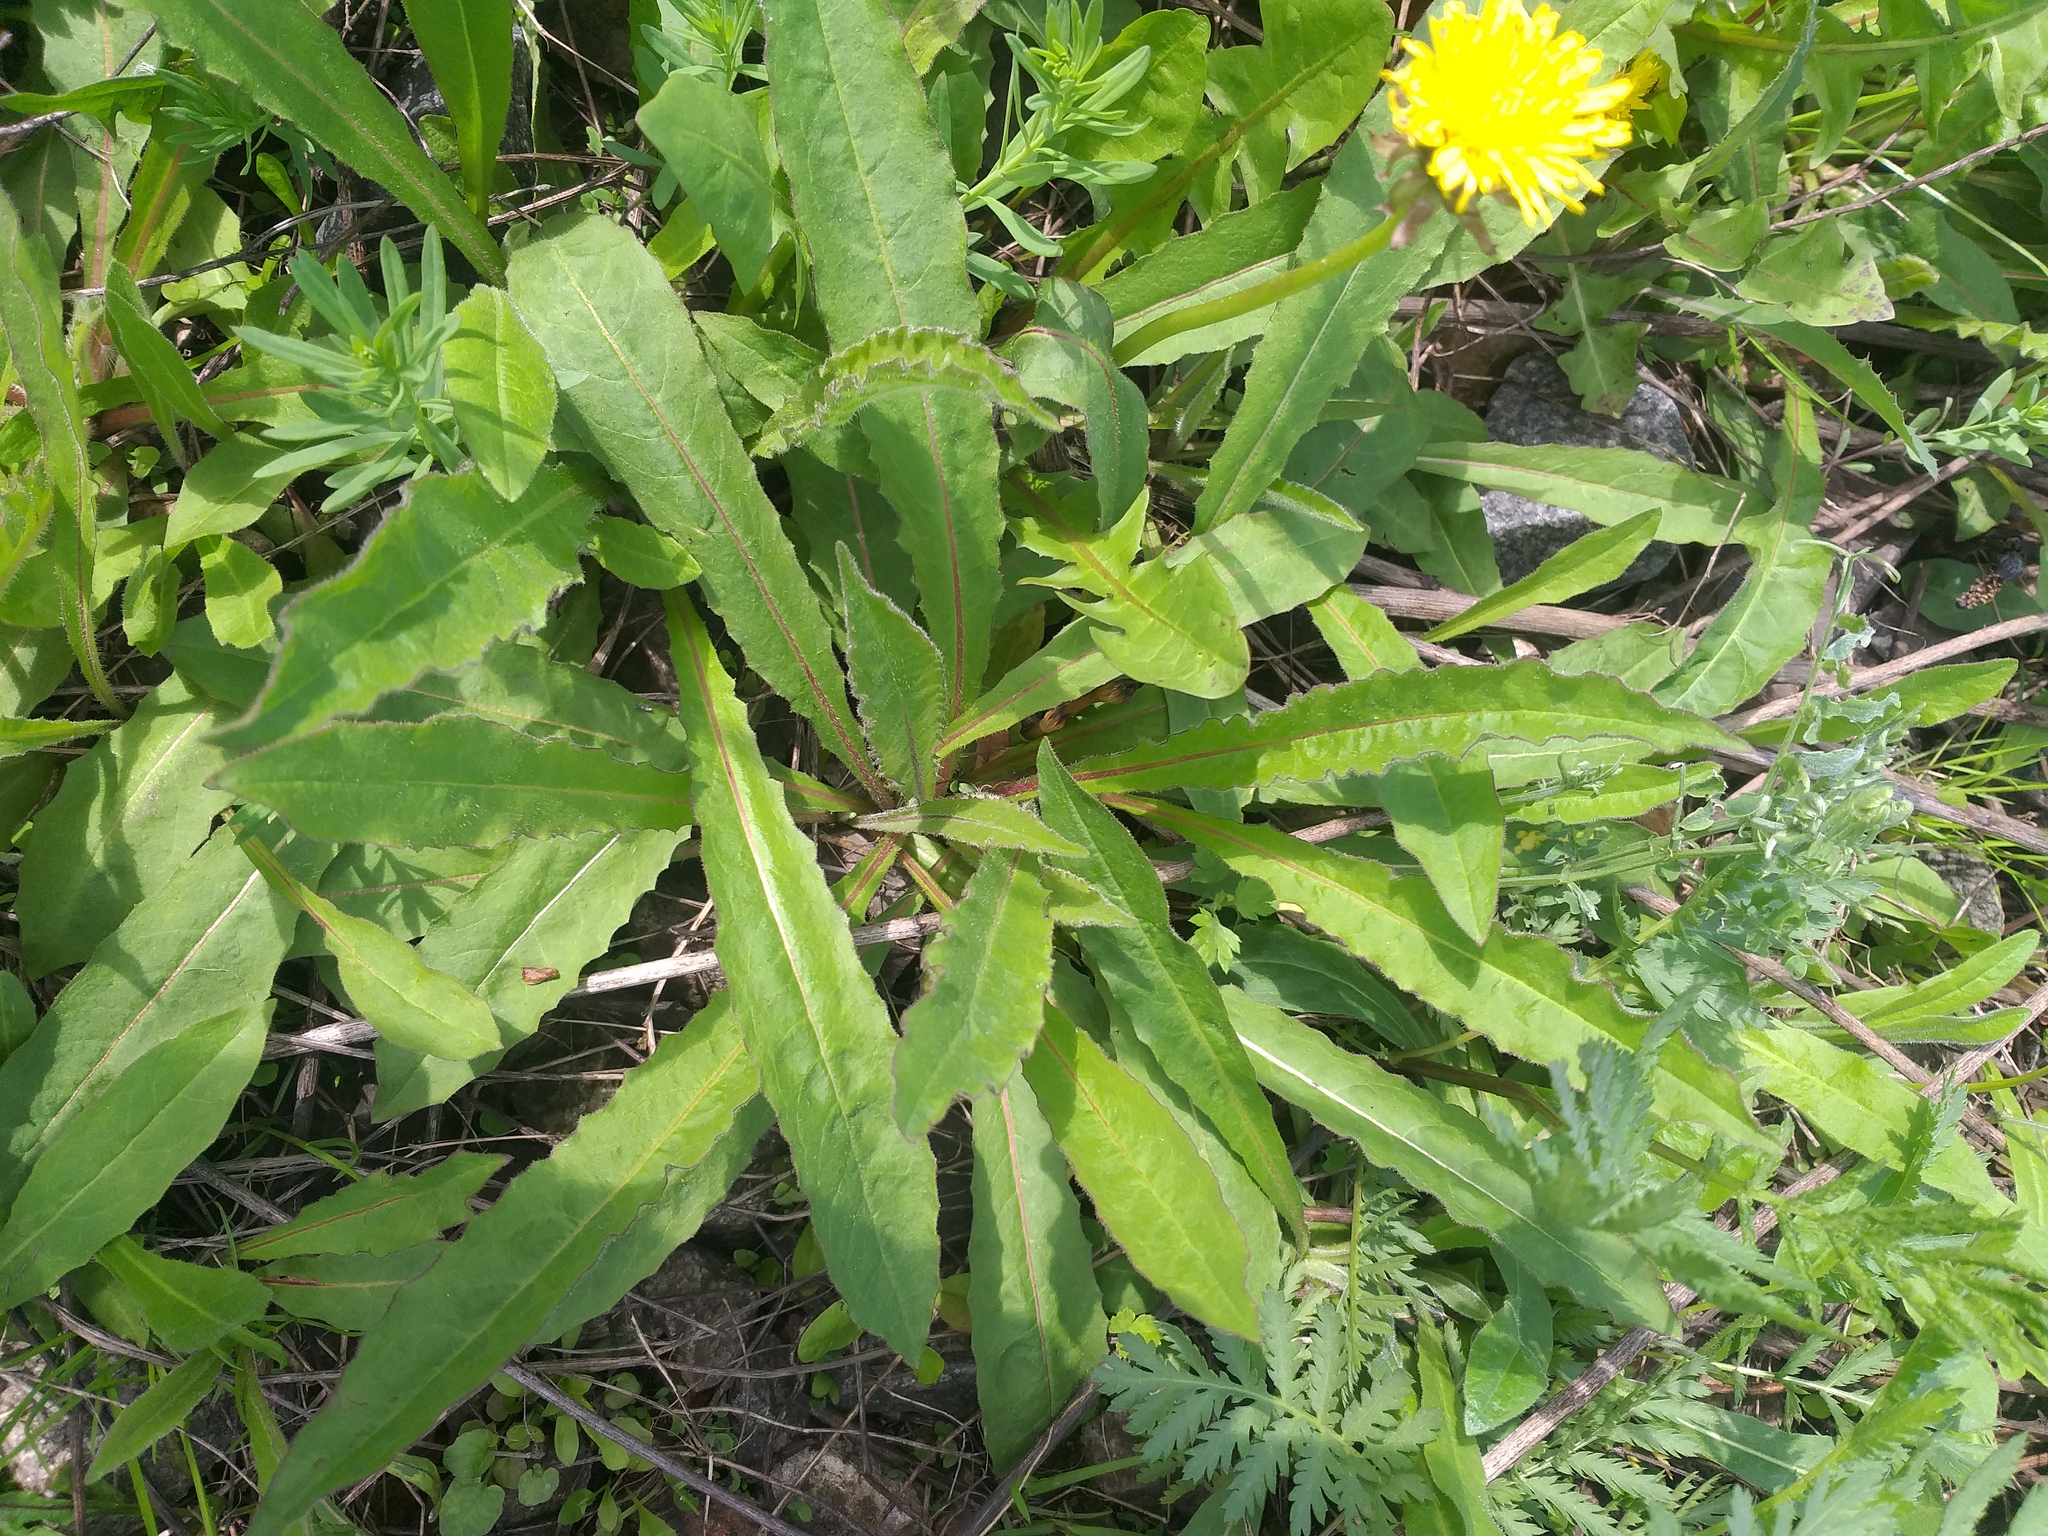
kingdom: Plantae
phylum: Tracheophyta
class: Magnoliopsida
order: Asterales
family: Asteraceae
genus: Picris
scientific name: Picris hieracioides
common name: Hawkweed oxtongue
